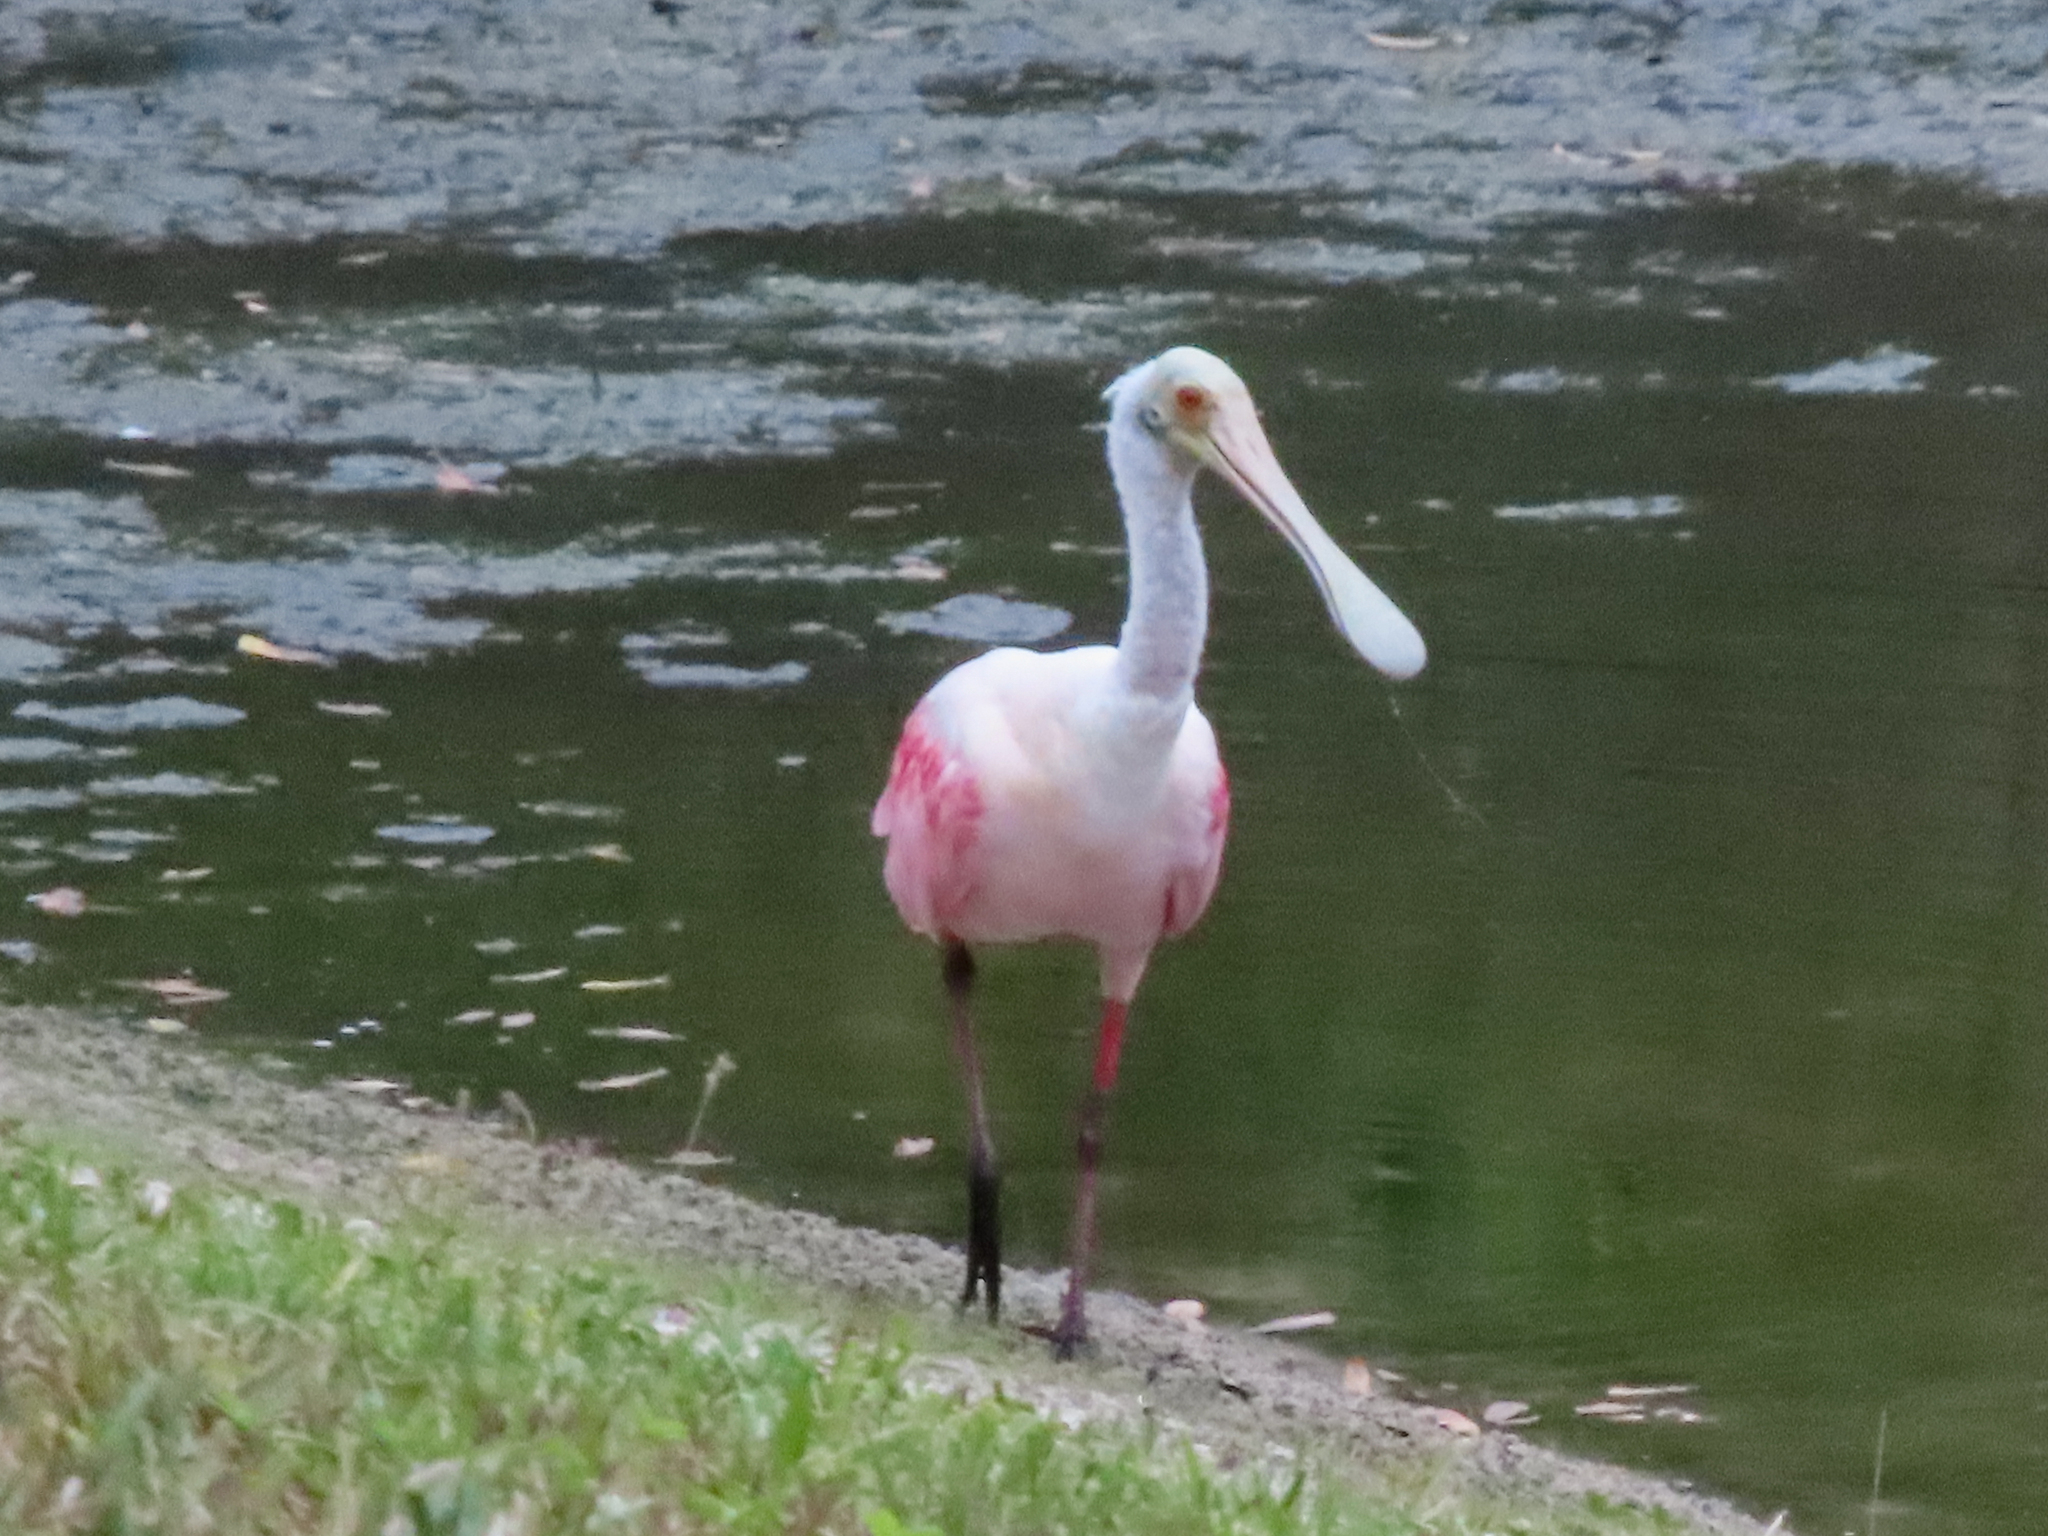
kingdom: Animalia
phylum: Chordata
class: Aves
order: Pelecaniformes
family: Threskiornithidae
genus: Platalea
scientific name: Platalea ajaja
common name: Roseate spoonbill
